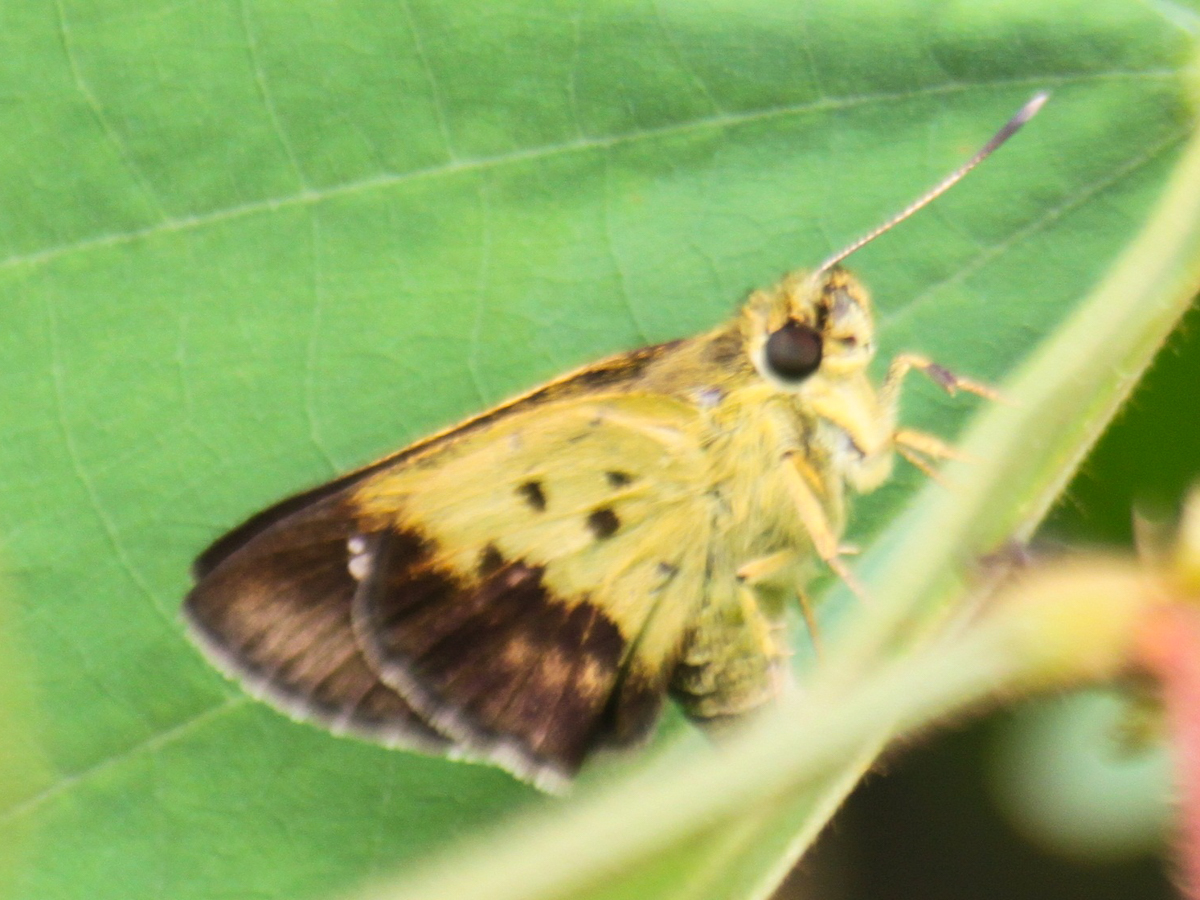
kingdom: Animalia
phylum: Arthropoda
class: Insecta
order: Lepidoptera
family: Hesperiidae
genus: Zographetus
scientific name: Zographetus satwa
